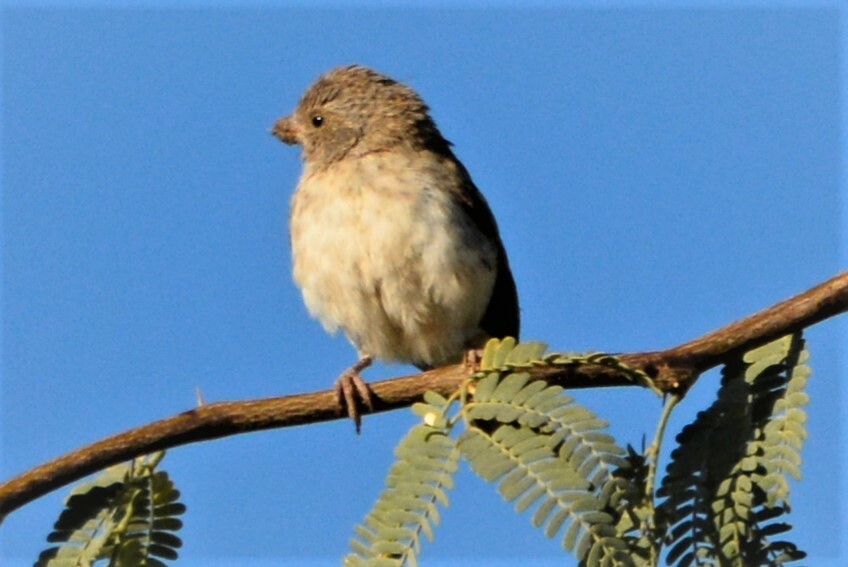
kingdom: Animalia
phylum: Chordata
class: Aves
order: Passeriformes
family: Fringillidae
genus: Crithagra
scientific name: Crithagra leucopygia
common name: White-rumped seedeater
